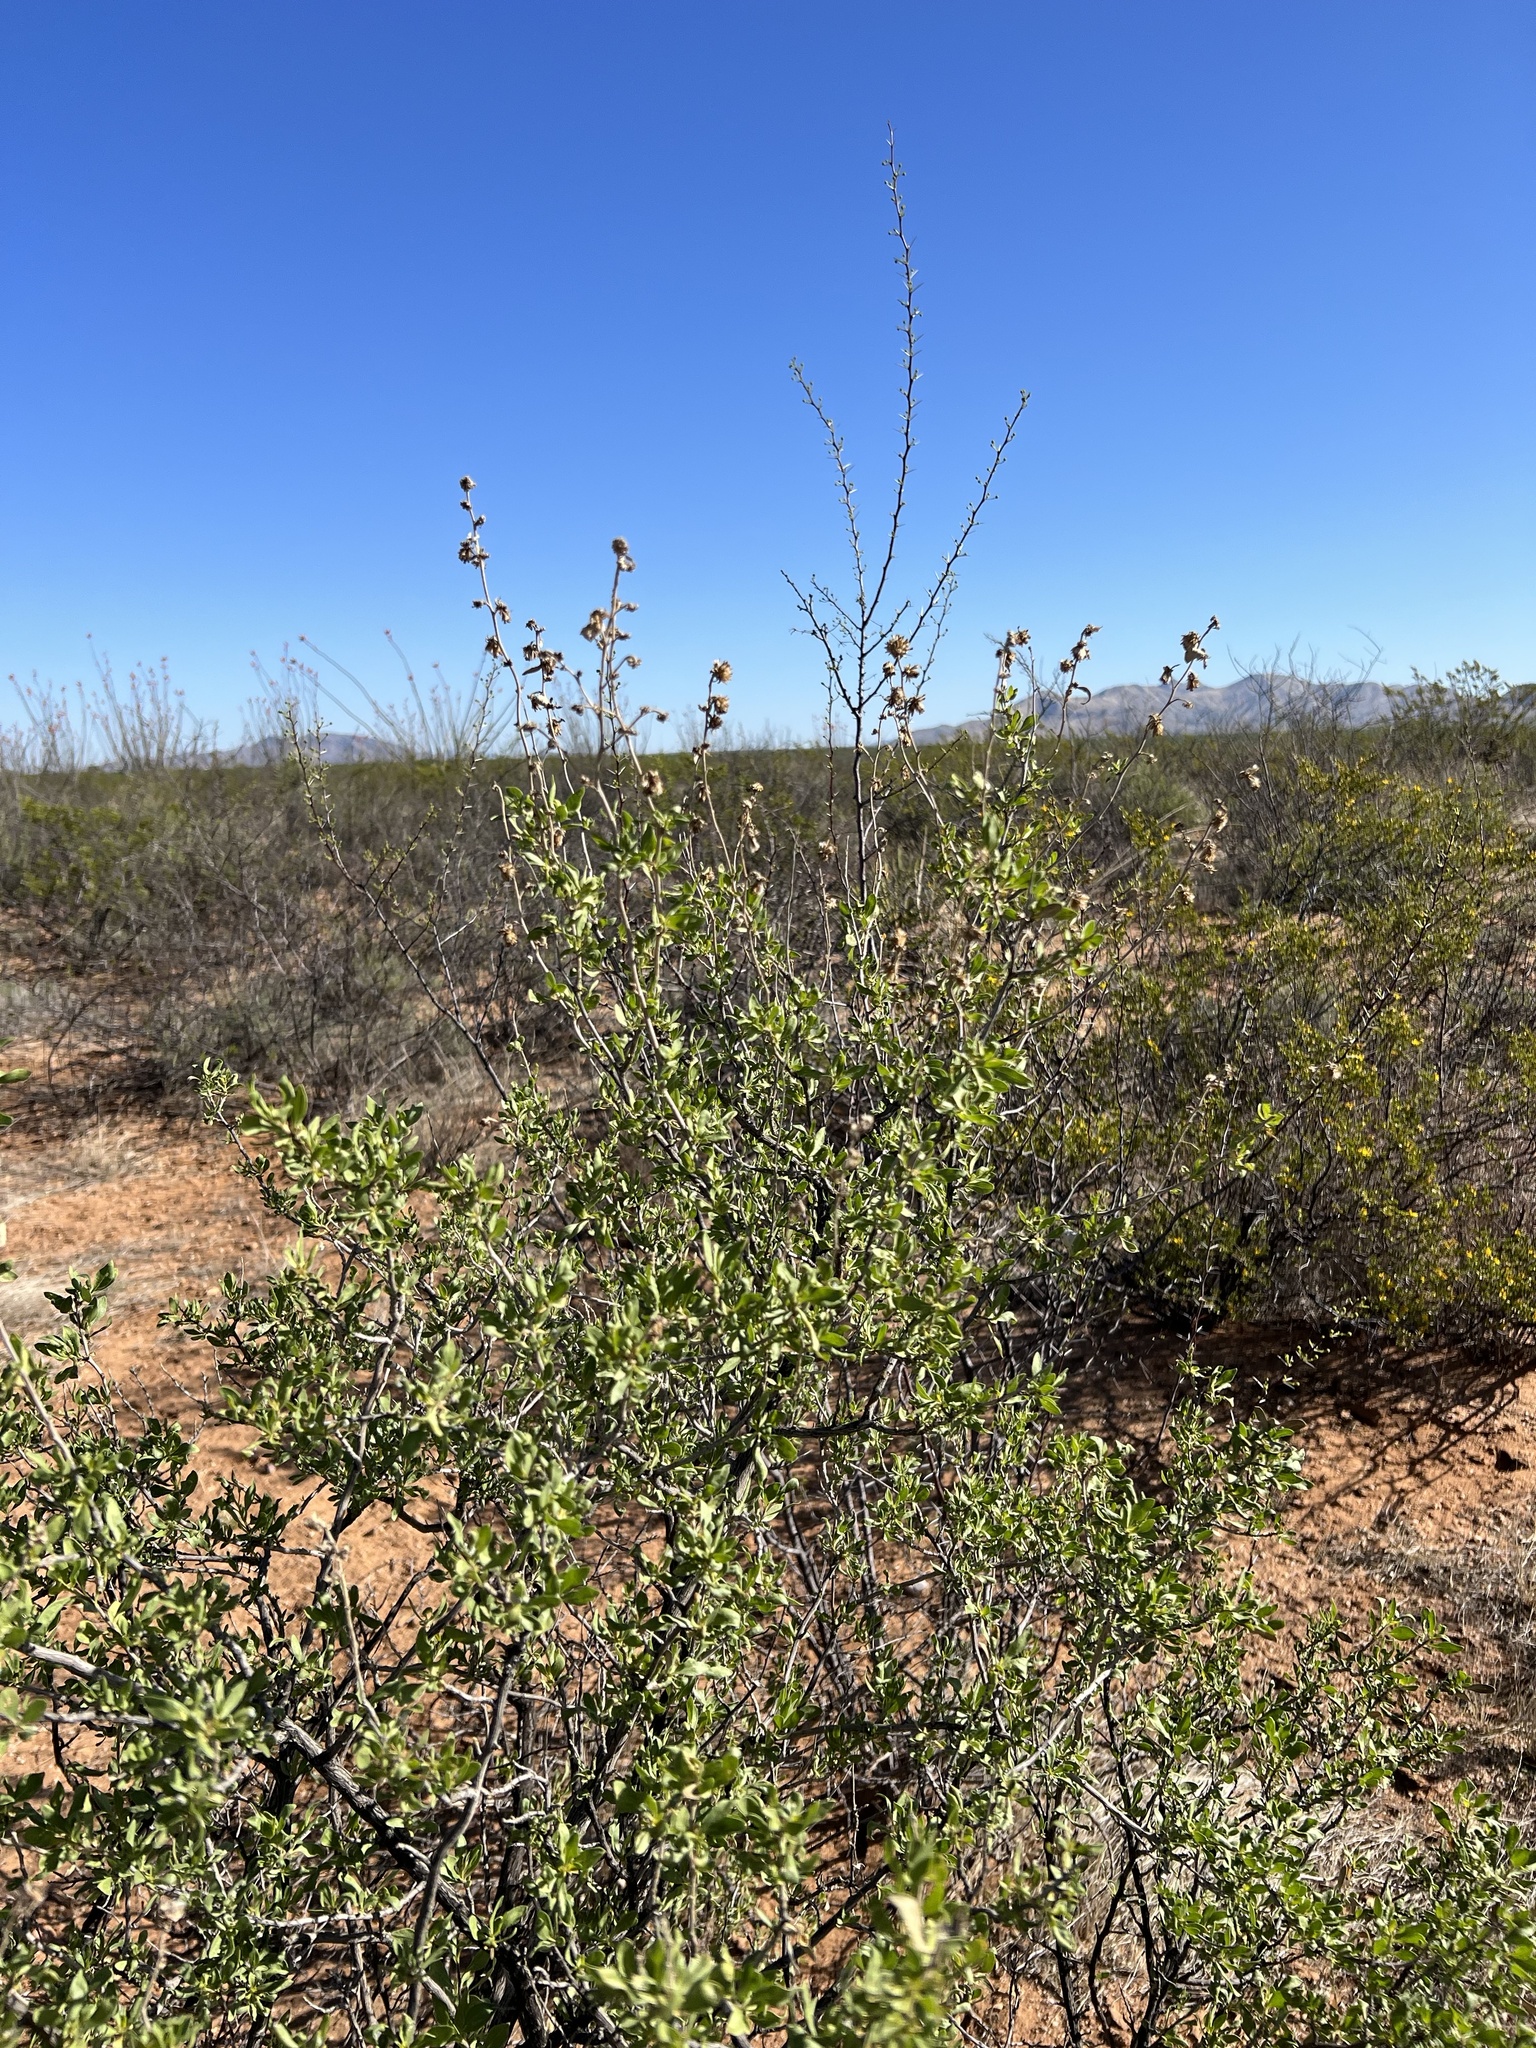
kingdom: Plantae
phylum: Tracheophyta
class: Magnoliopsida
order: Asterales
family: Asteraceae
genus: Flourensia
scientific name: Flourensia cernua
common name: Varnishbush
